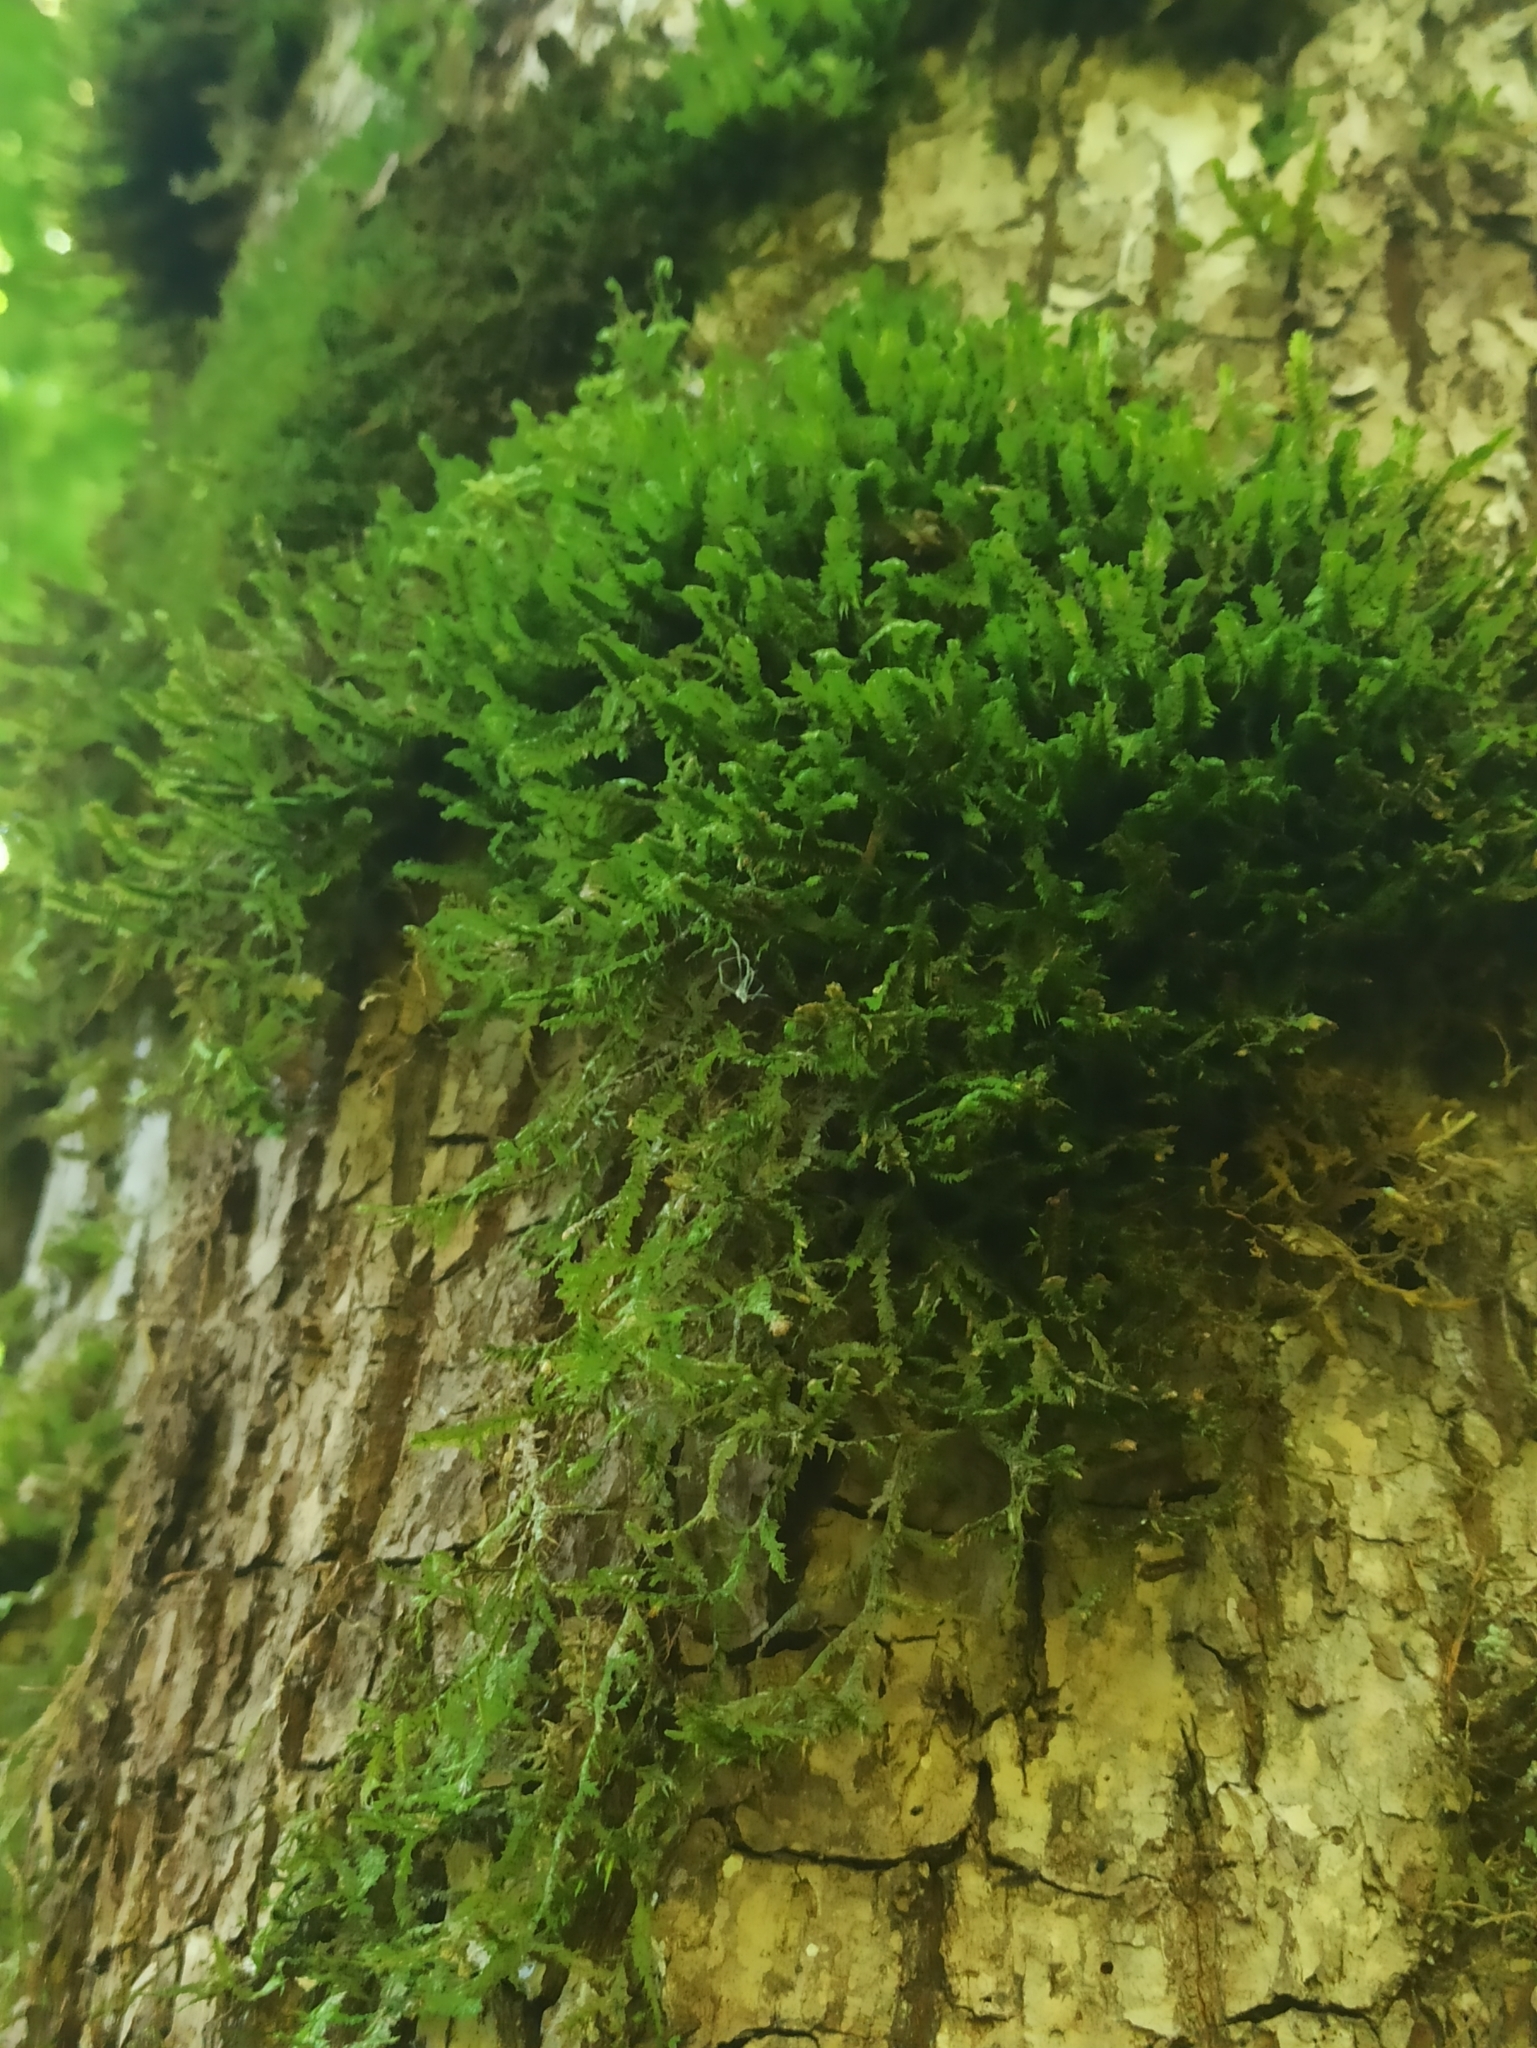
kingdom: Plantae
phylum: Bryophyta
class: Bryopsida
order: Hypnales
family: Neckeraceae
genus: Neckera
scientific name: Neckera pennata
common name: Feathery neckera
